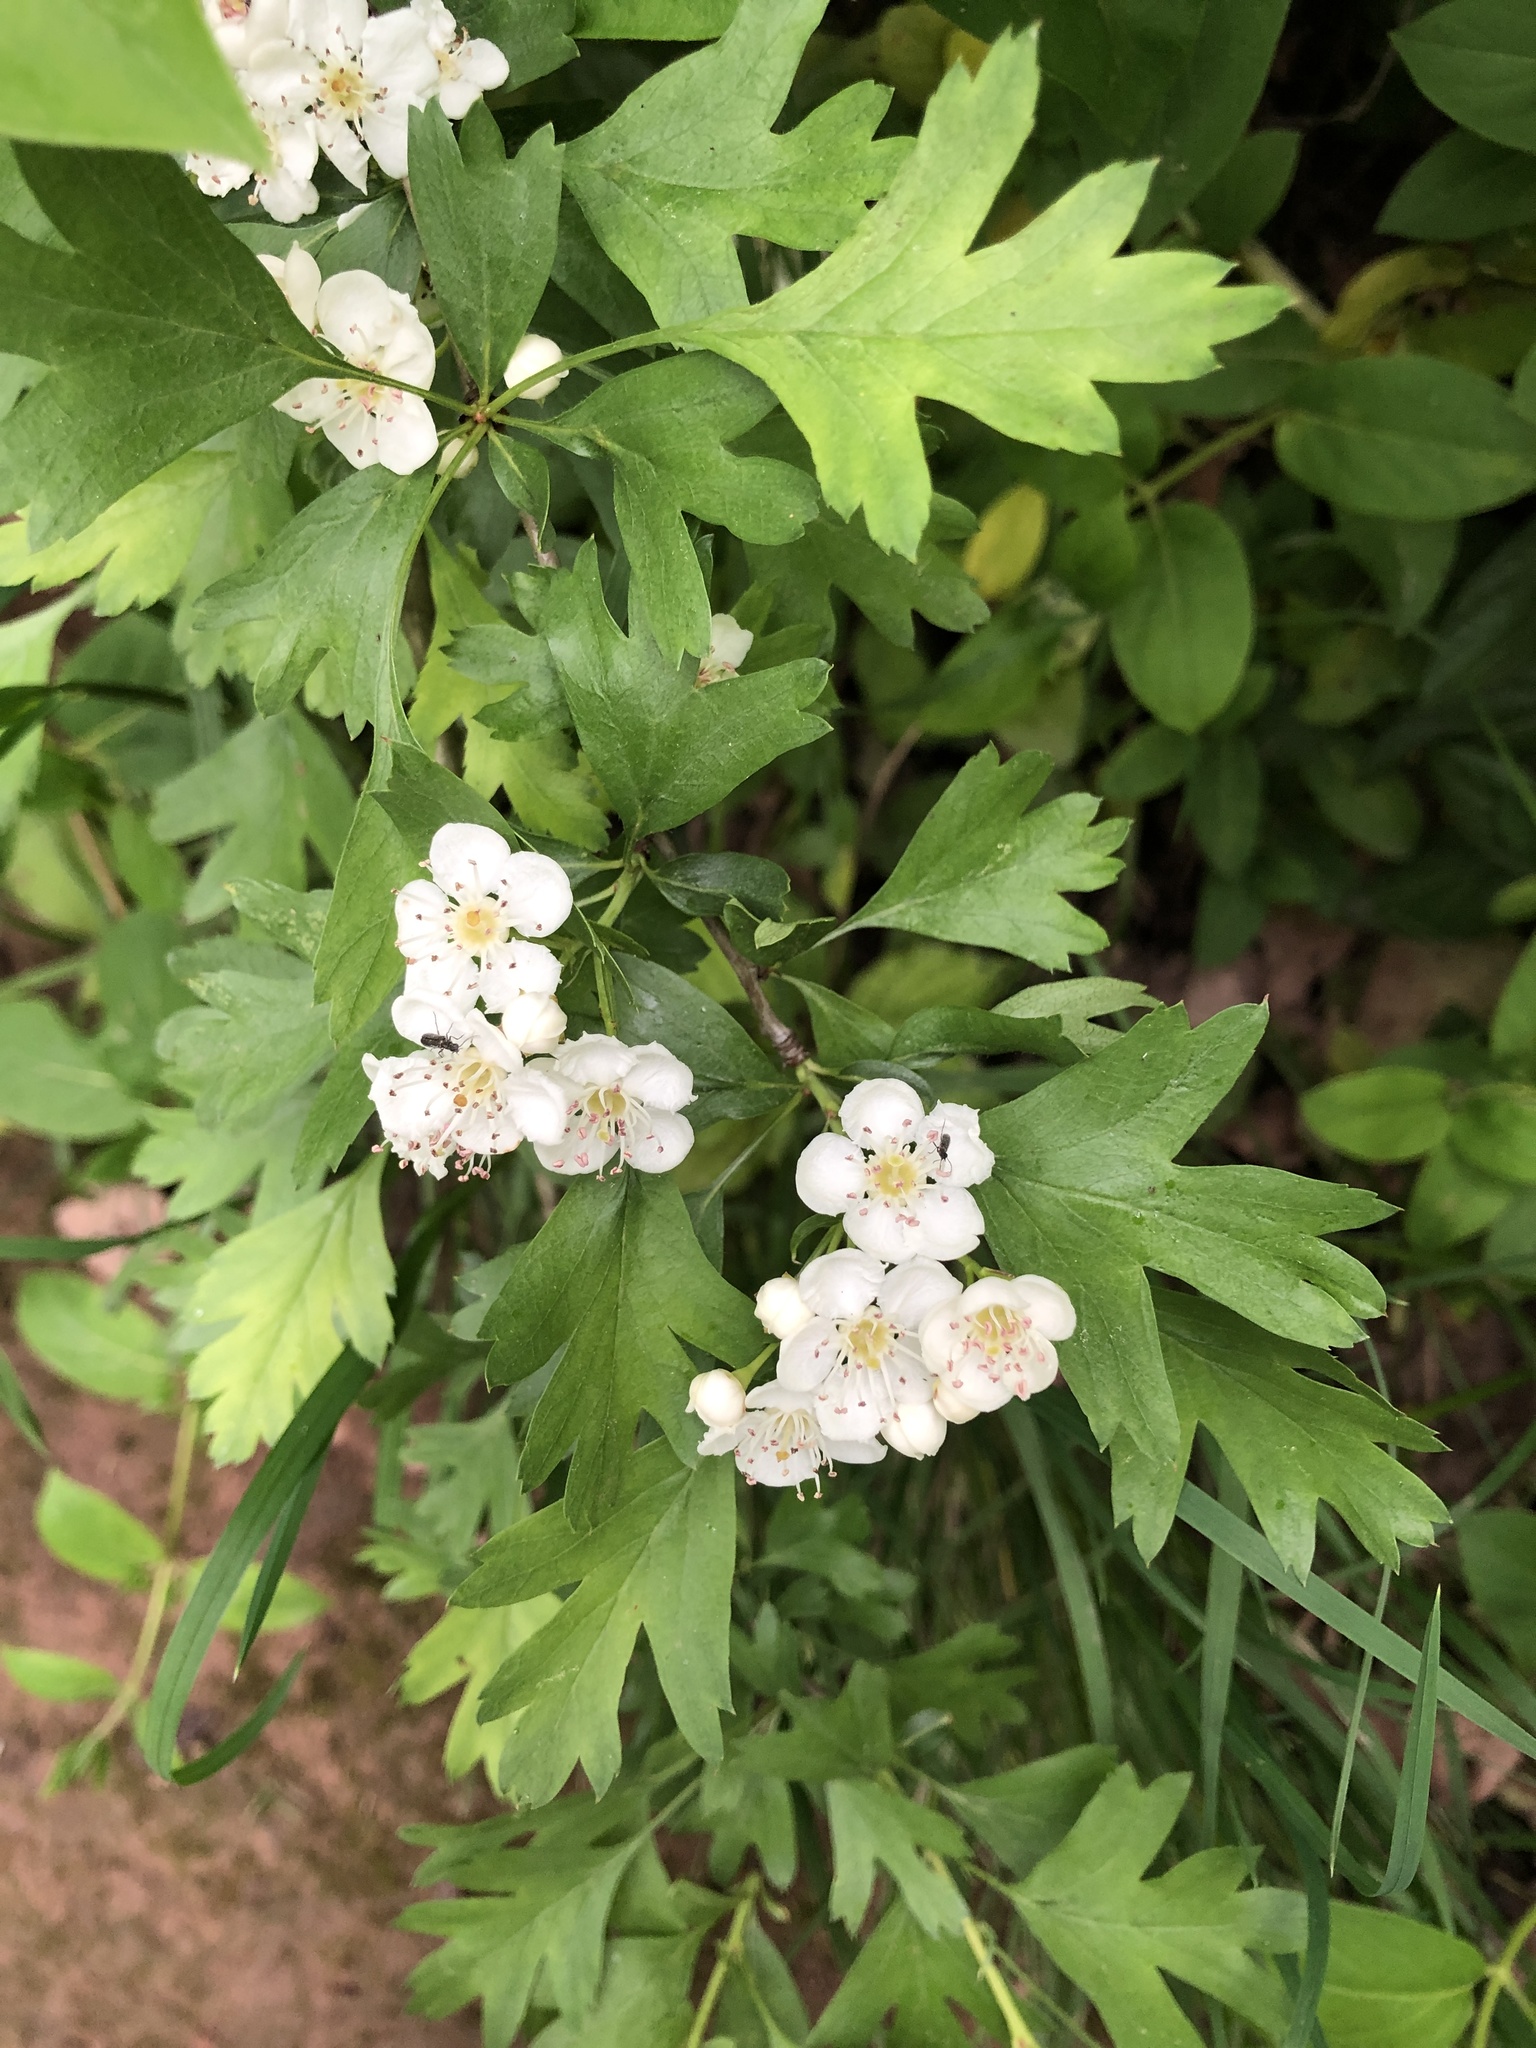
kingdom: Plantae
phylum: Tracheophyta
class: Magnoliopsida
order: Rosales
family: Rosaceae
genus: Crataegus
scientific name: Crataegus monogyna
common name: Hawthorn
